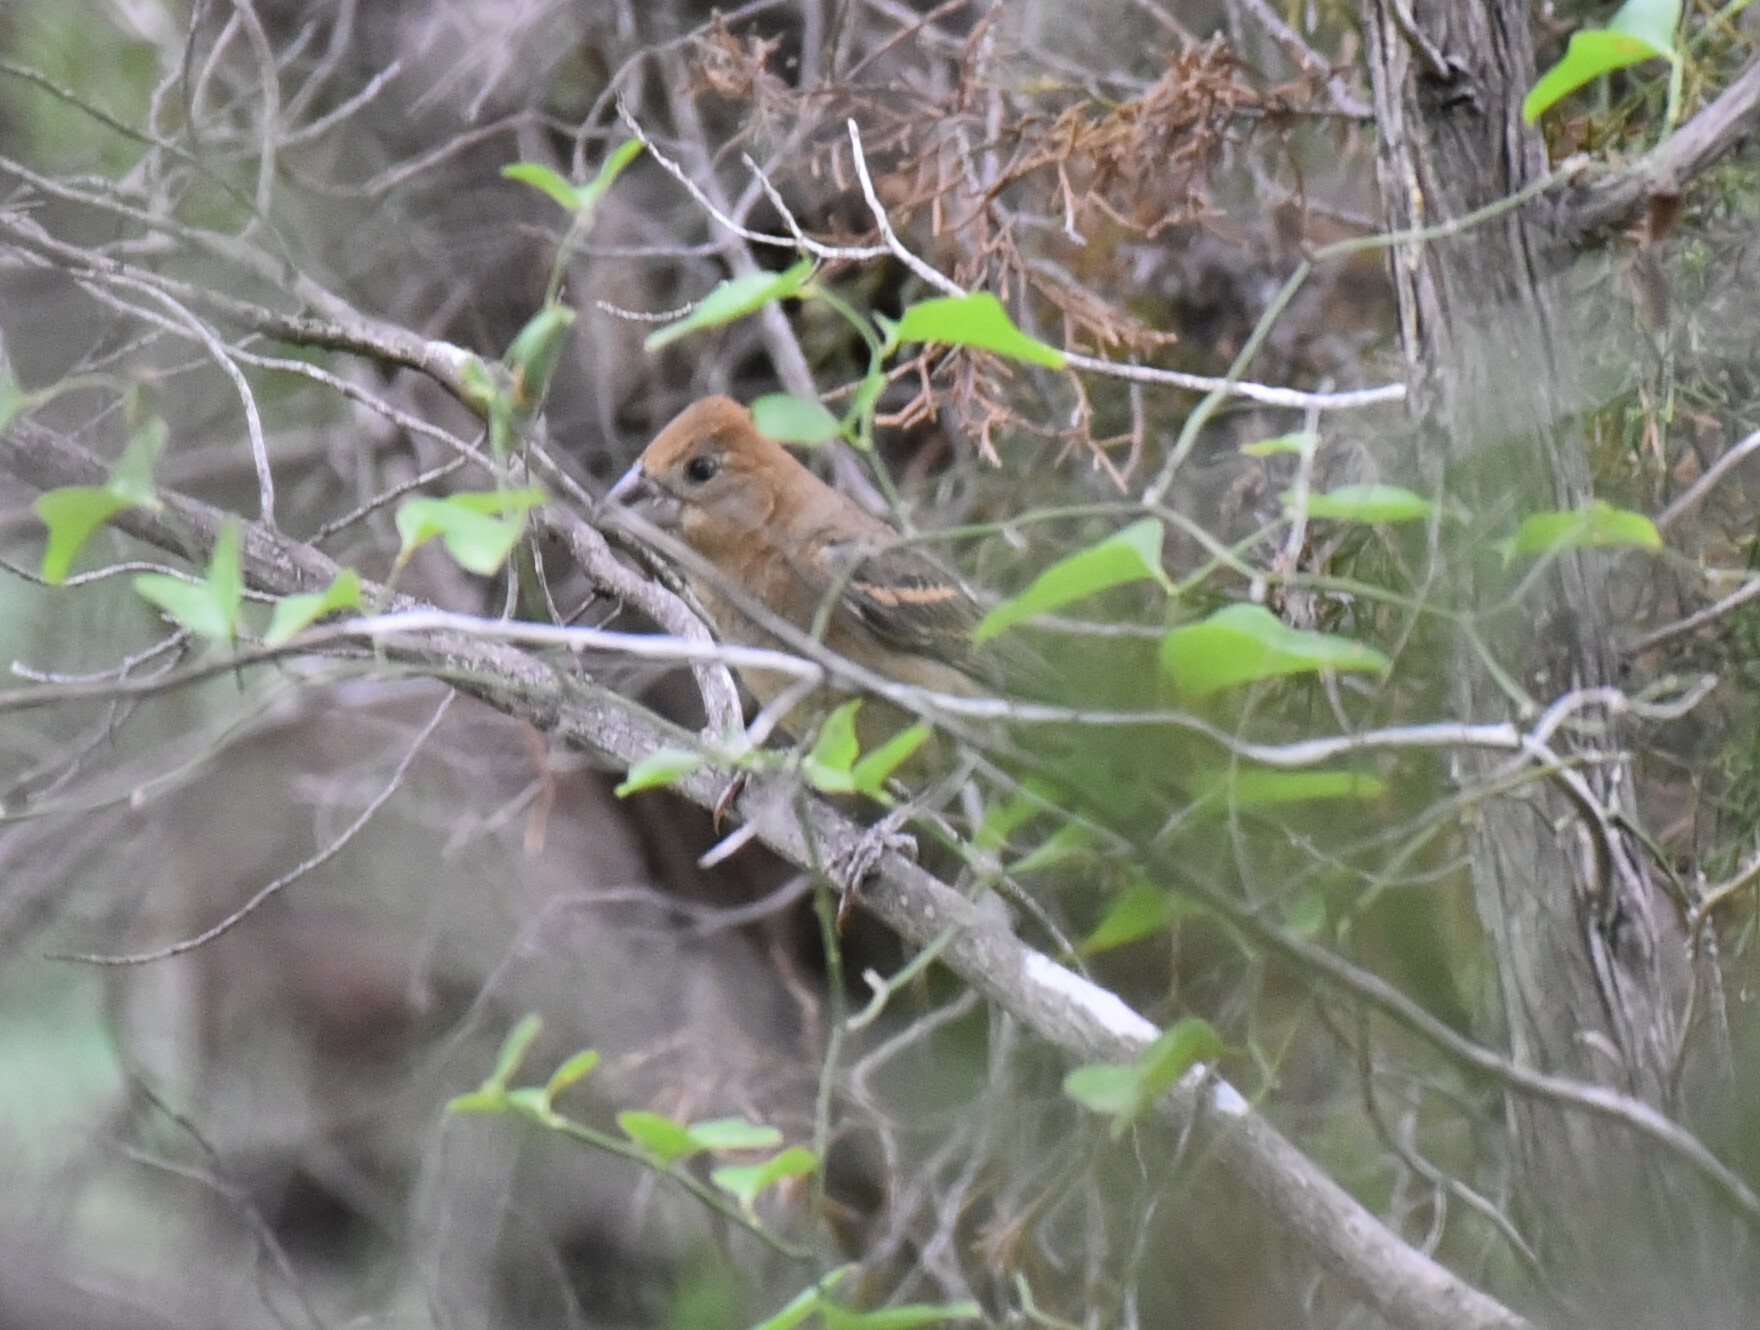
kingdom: Animalia
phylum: Chordata
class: Aves
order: Passeriformes
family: Cardinalidae
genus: Passerina
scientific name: Passerina caerulea
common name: Blue grosbeak
